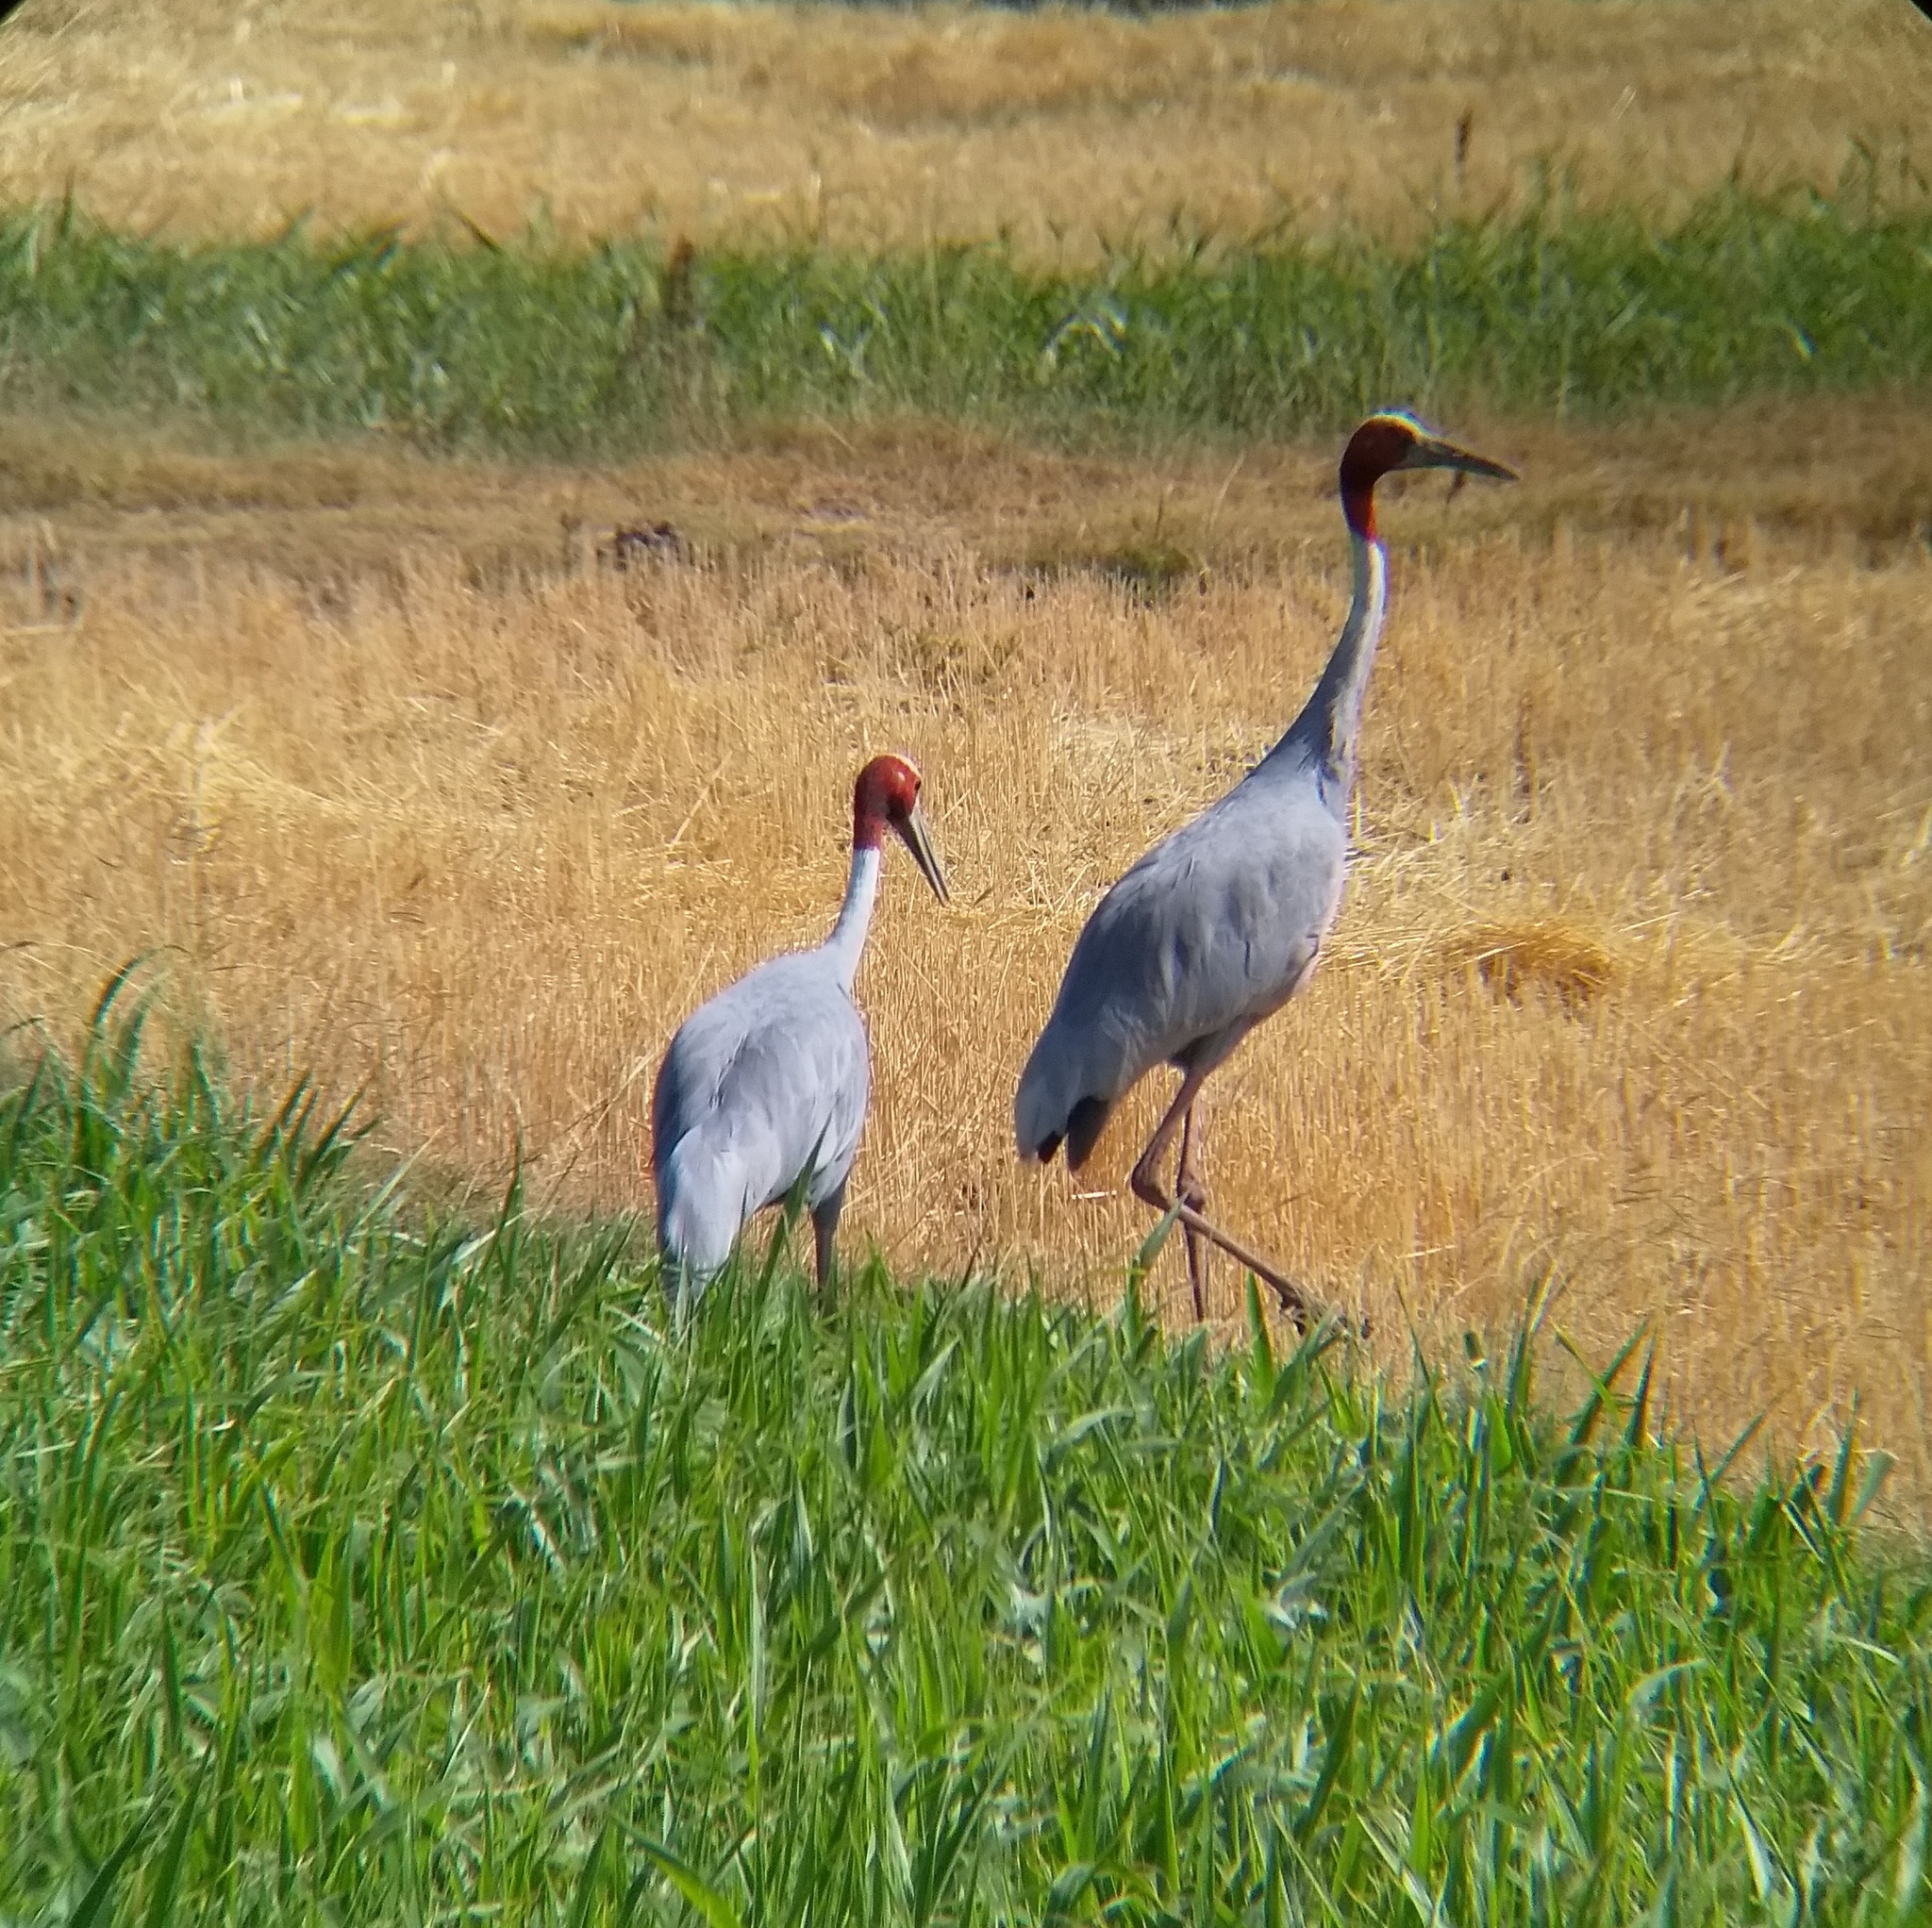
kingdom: Animalia
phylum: Chordata
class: Aves
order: Gruiformes
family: Gruidae
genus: Grus
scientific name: Grus antigone
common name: Sarus crane
